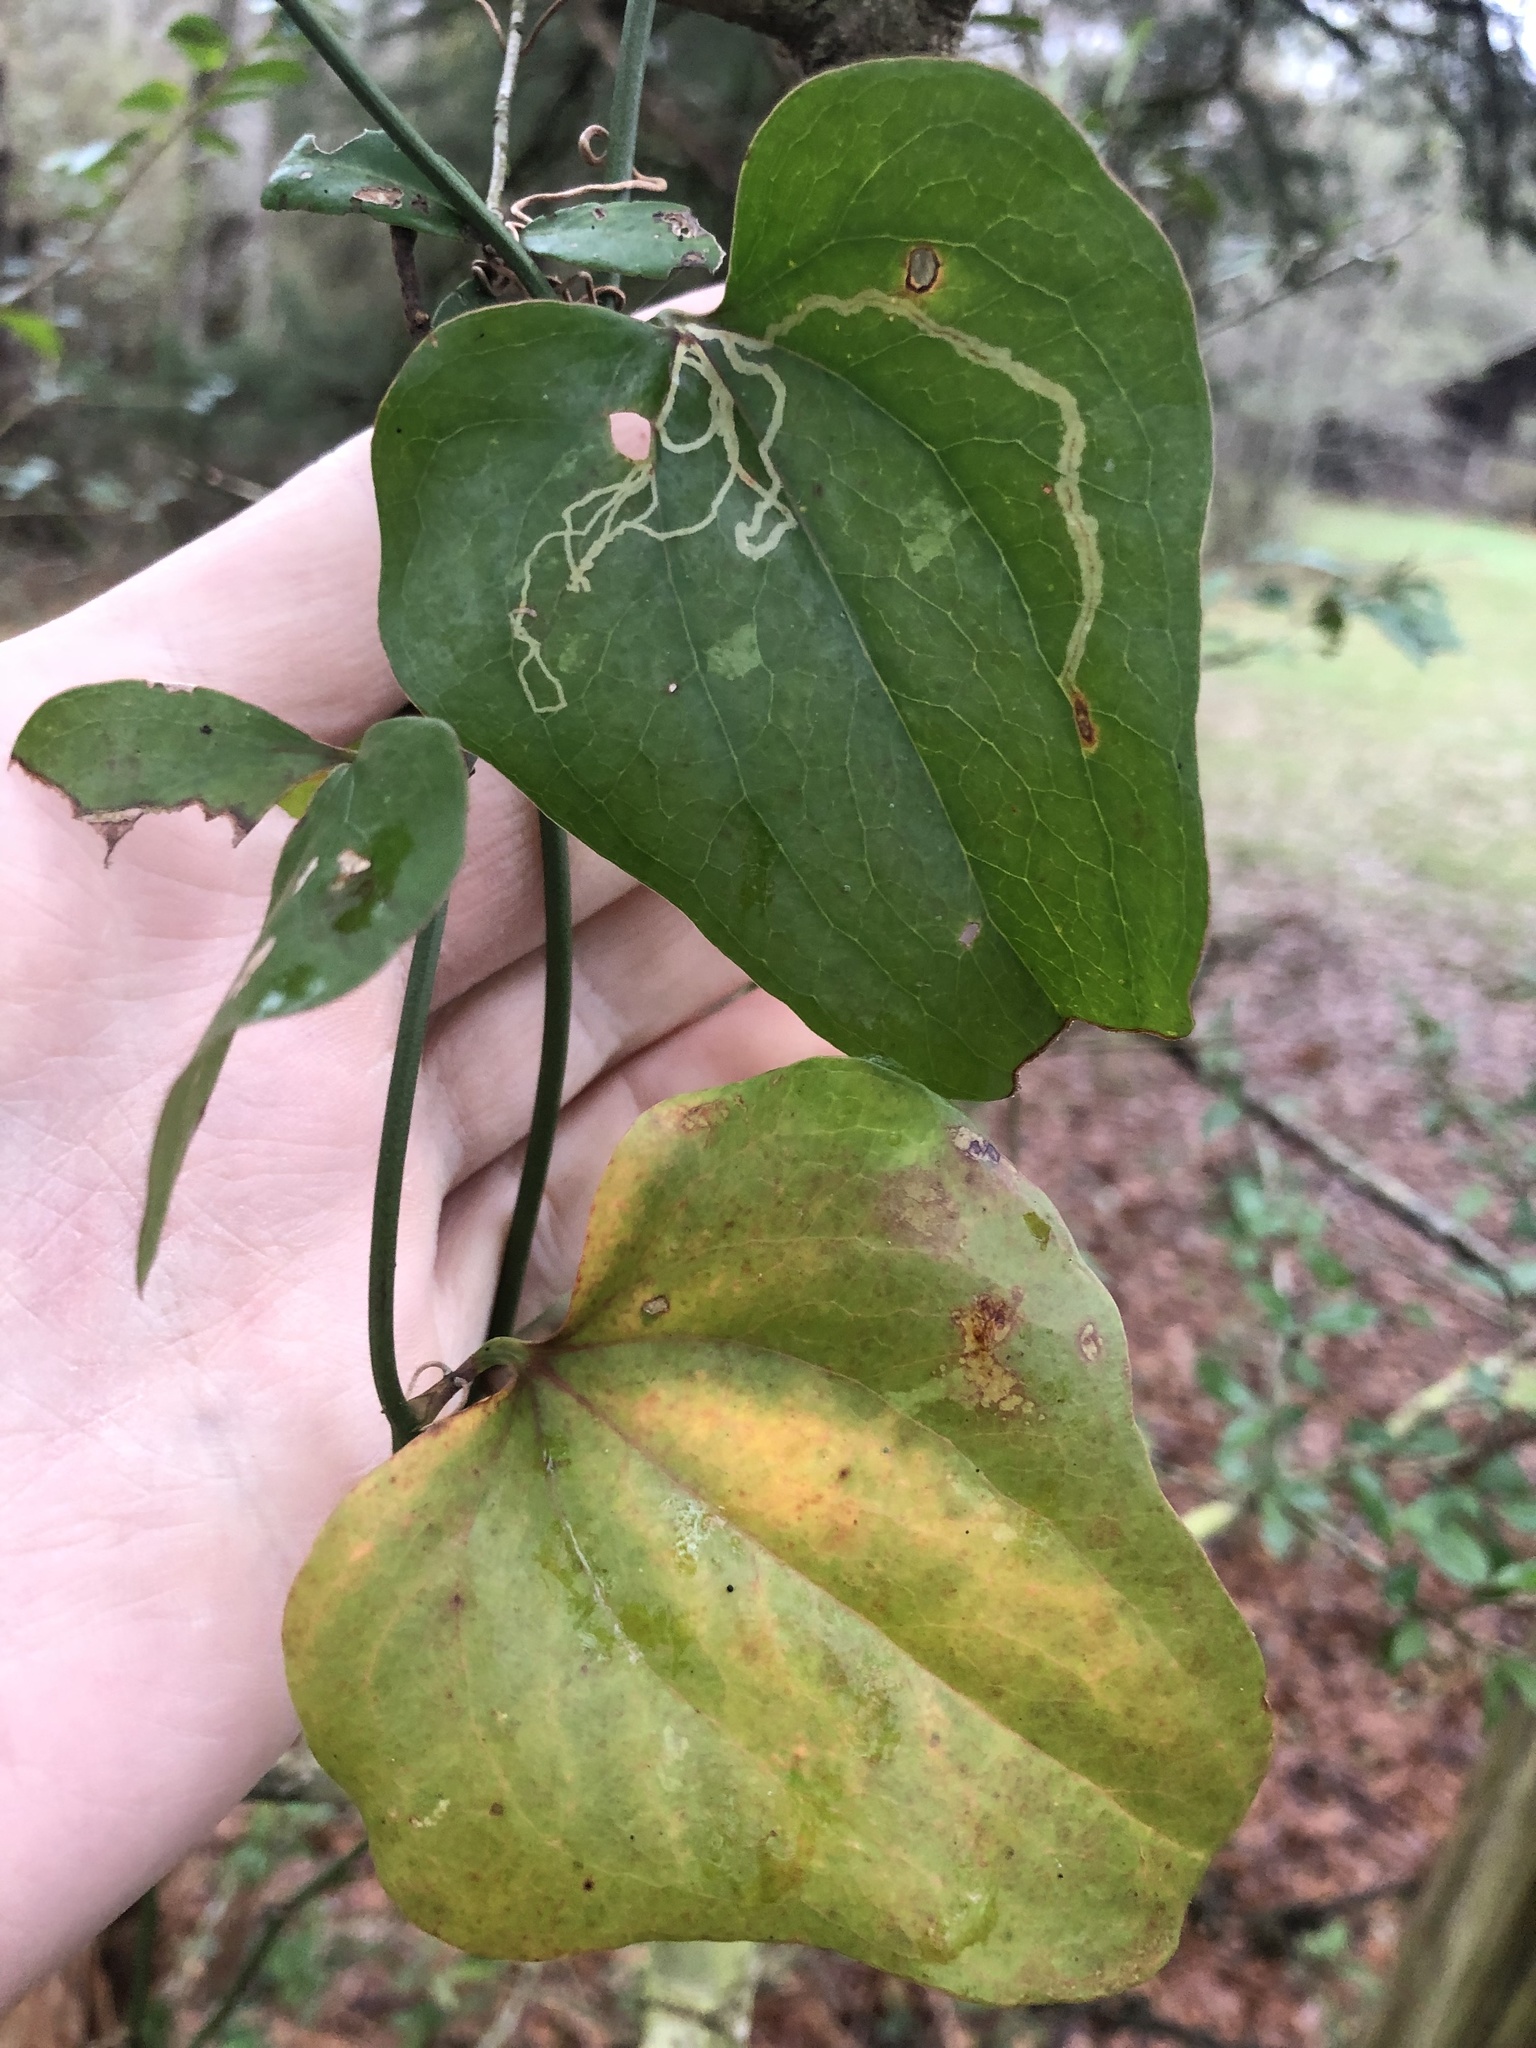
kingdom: Plantae
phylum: Tracheophyta
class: Liliopsida
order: Liliales
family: Smilacaceae
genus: Smilax
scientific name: Smilax rotundifolia
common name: Bullbriar
